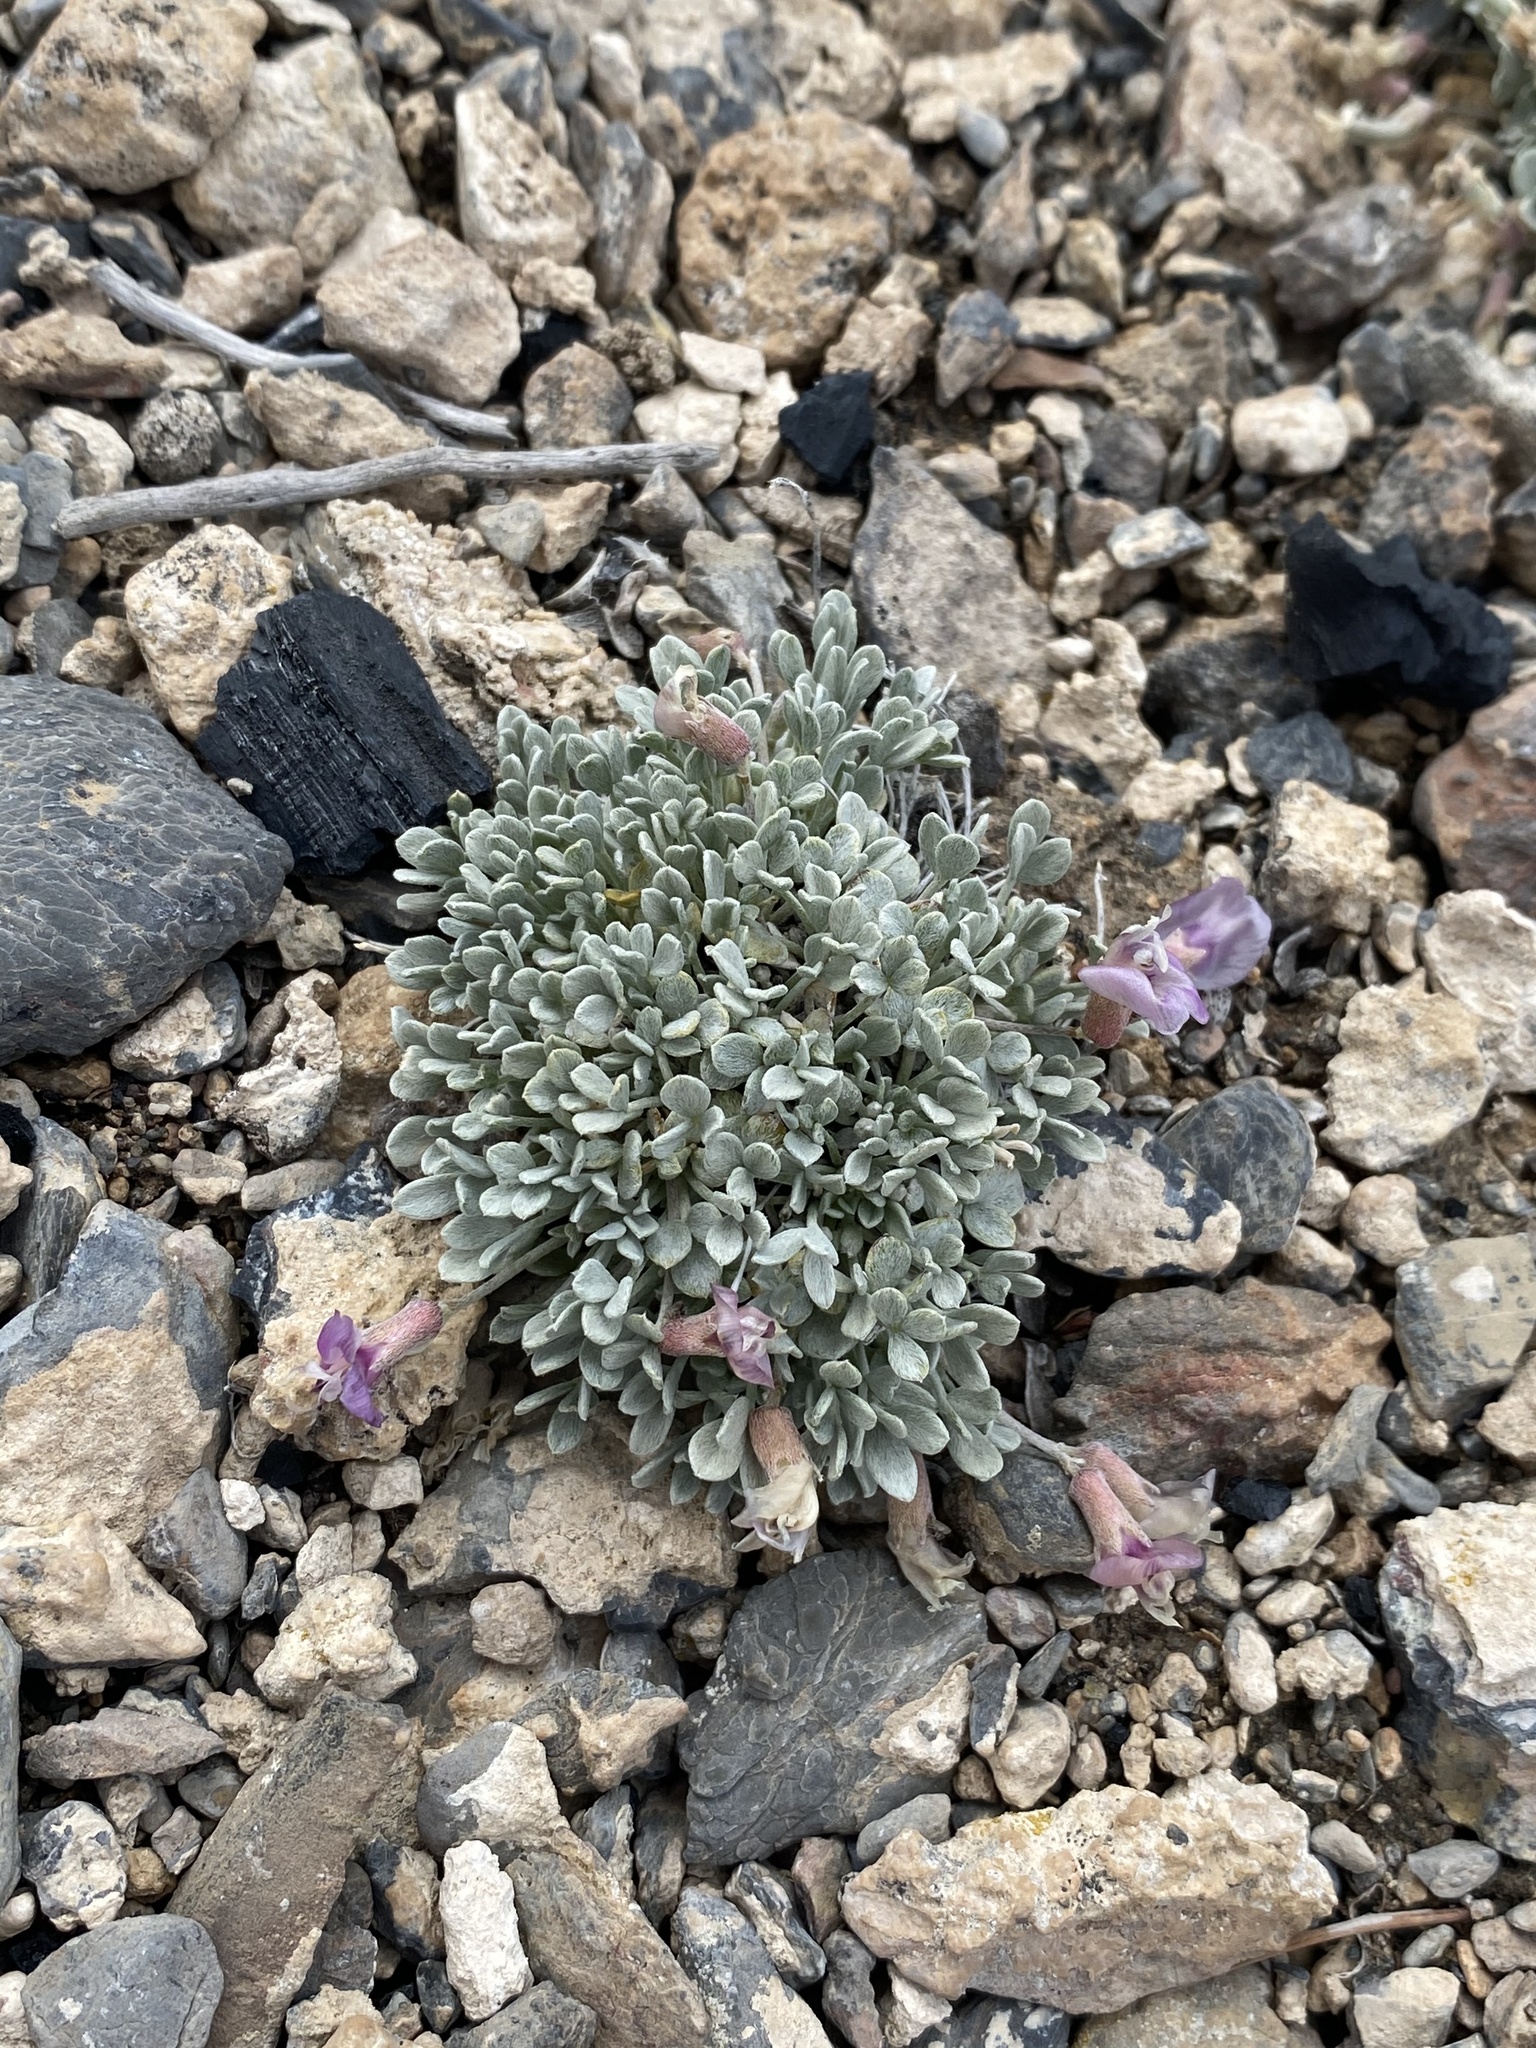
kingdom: Plantae
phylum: Tracheophyta
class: Magnoliopsida
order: Fabales
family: Fabaceae
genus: Astragalus
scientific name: Astragalus calycosus
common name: King's milkvetch
